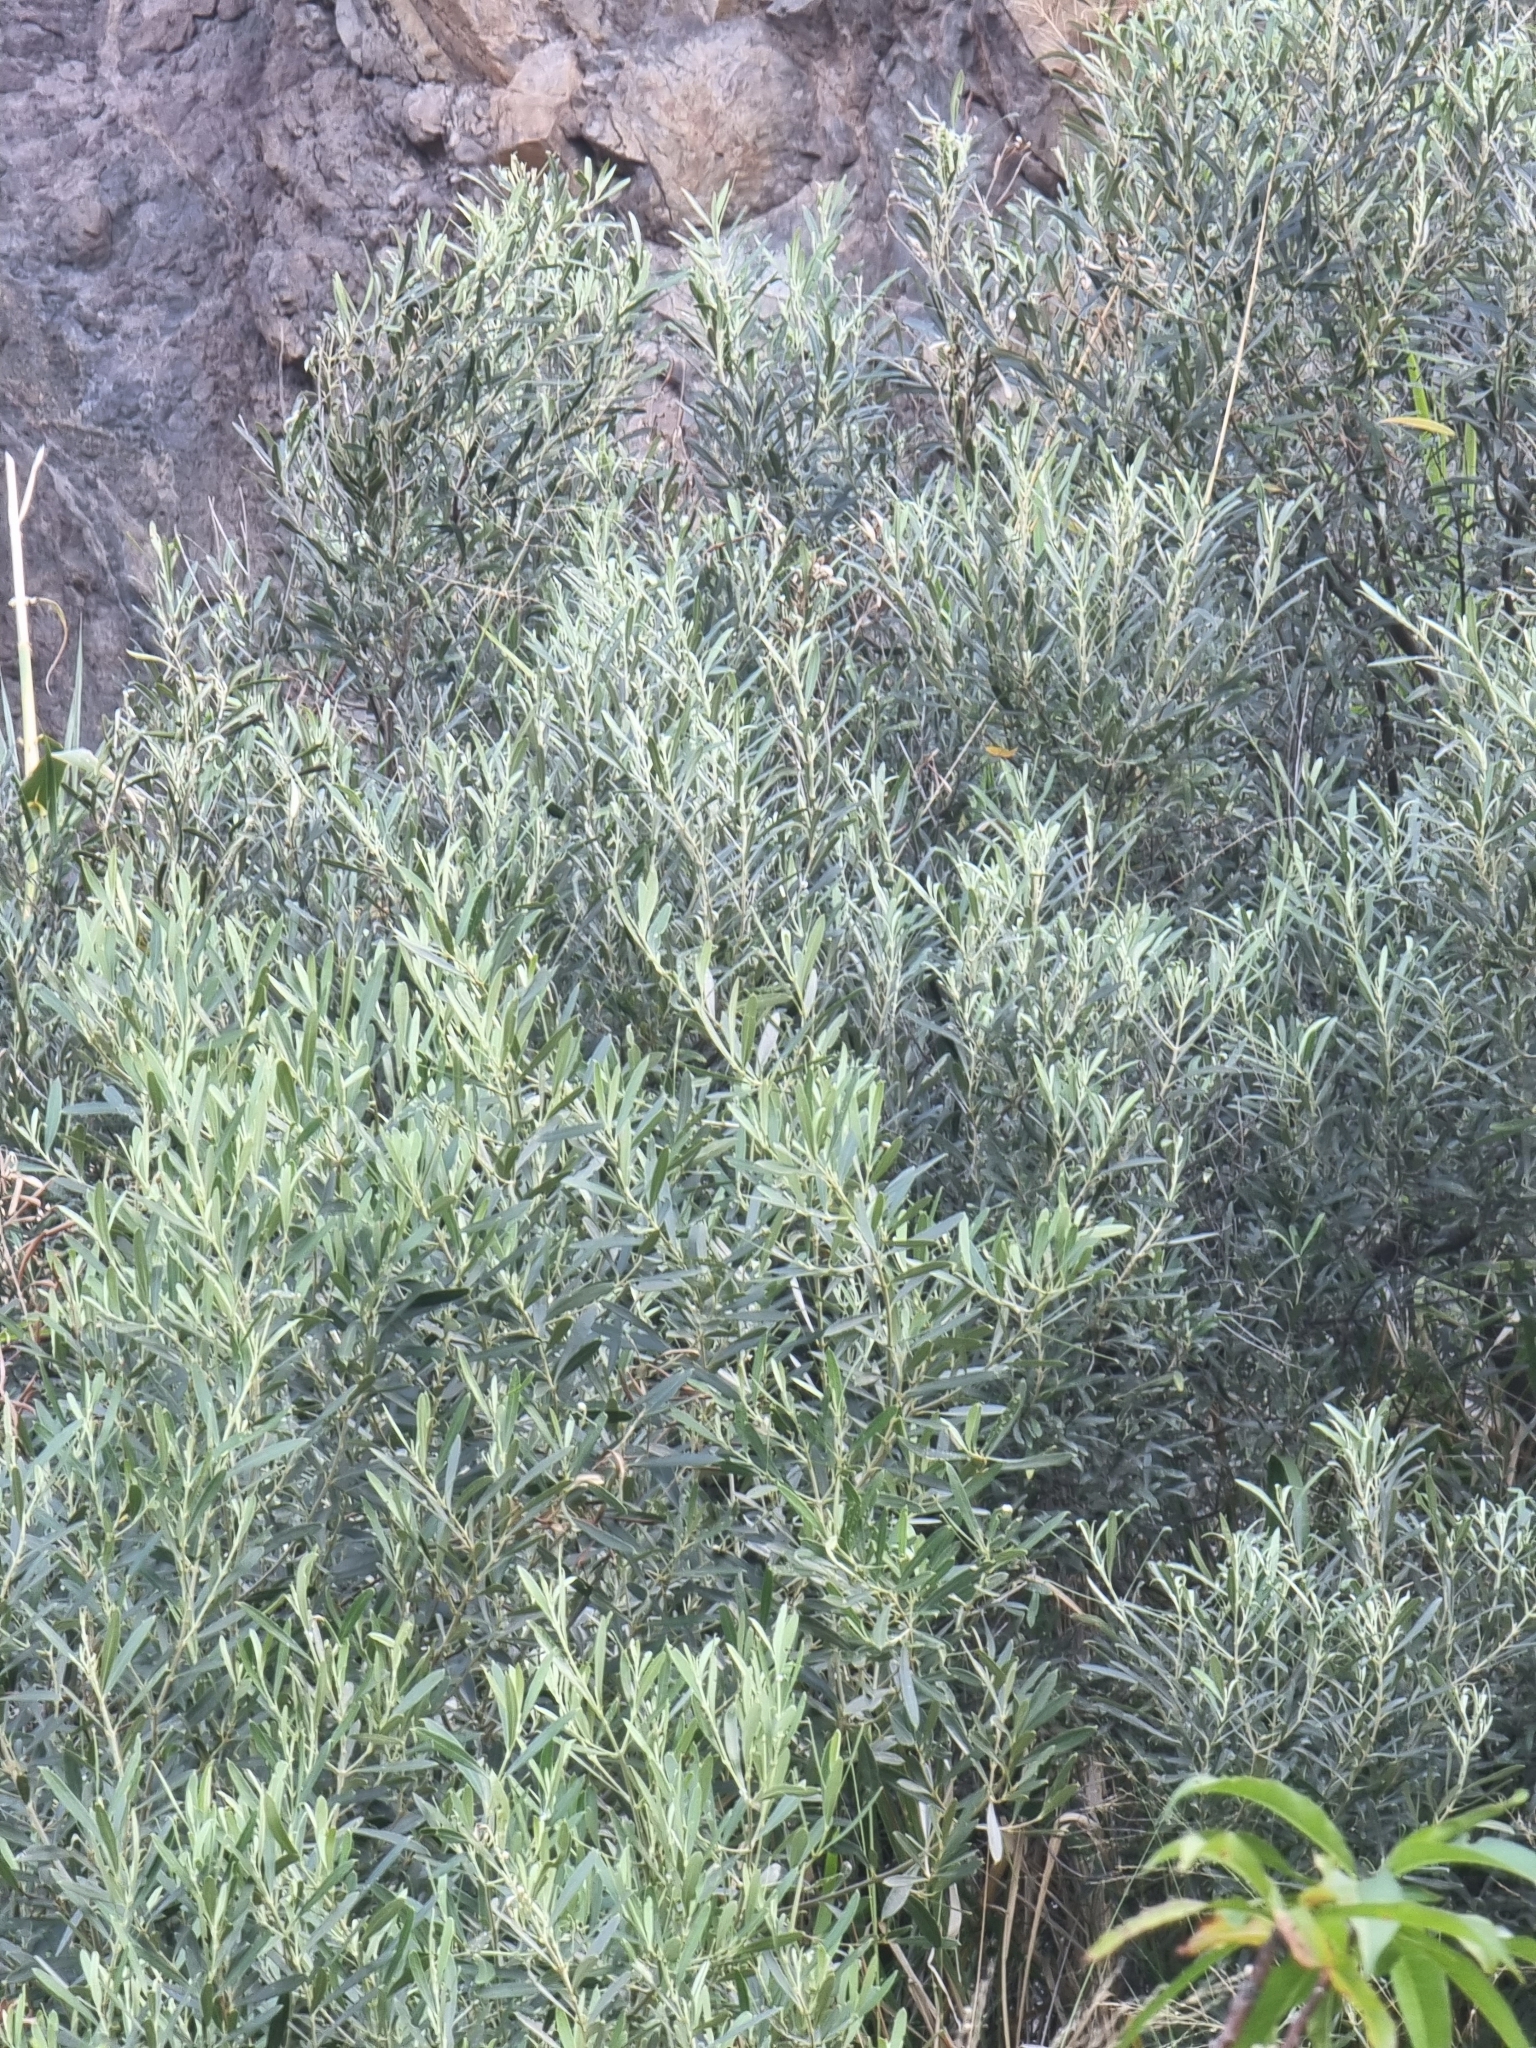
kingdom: Plantae
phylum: Tracheophyta
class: Magnoliopsida
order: Lamiales
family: Oleaceae
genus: Olea
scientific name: Olea europaea
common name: Olive
